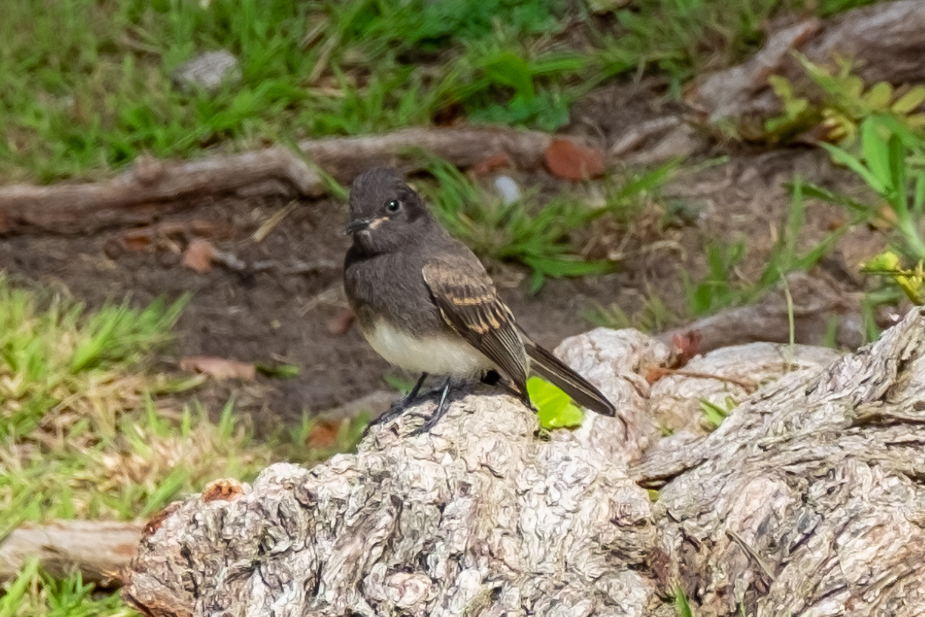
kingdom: Animalia
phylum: Chordata
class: Aves
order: Passeriformes
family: Tyrannidae
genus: Sayornis
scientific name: Sayornis nigricans
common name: Black phoebe
